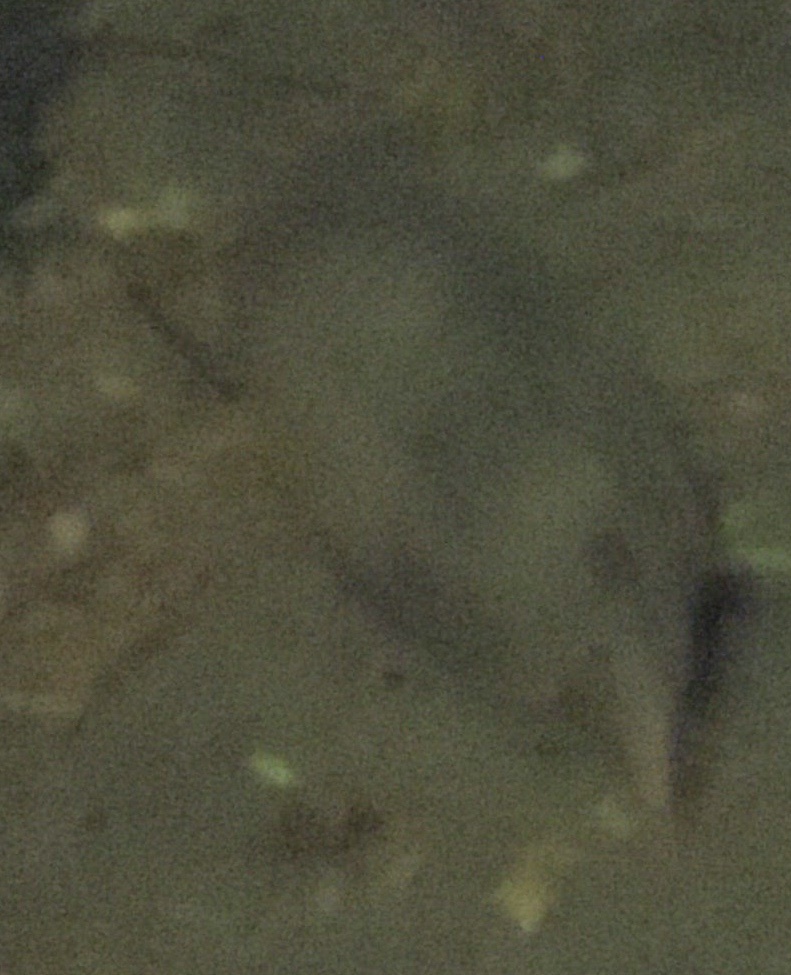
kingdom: Animalia
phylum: Chordata
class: Mammalia
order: Cingulata
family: Dasypodidae
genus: Dasypus
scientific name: Dasypus novemcinctus
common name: Nine-banded armadillo
